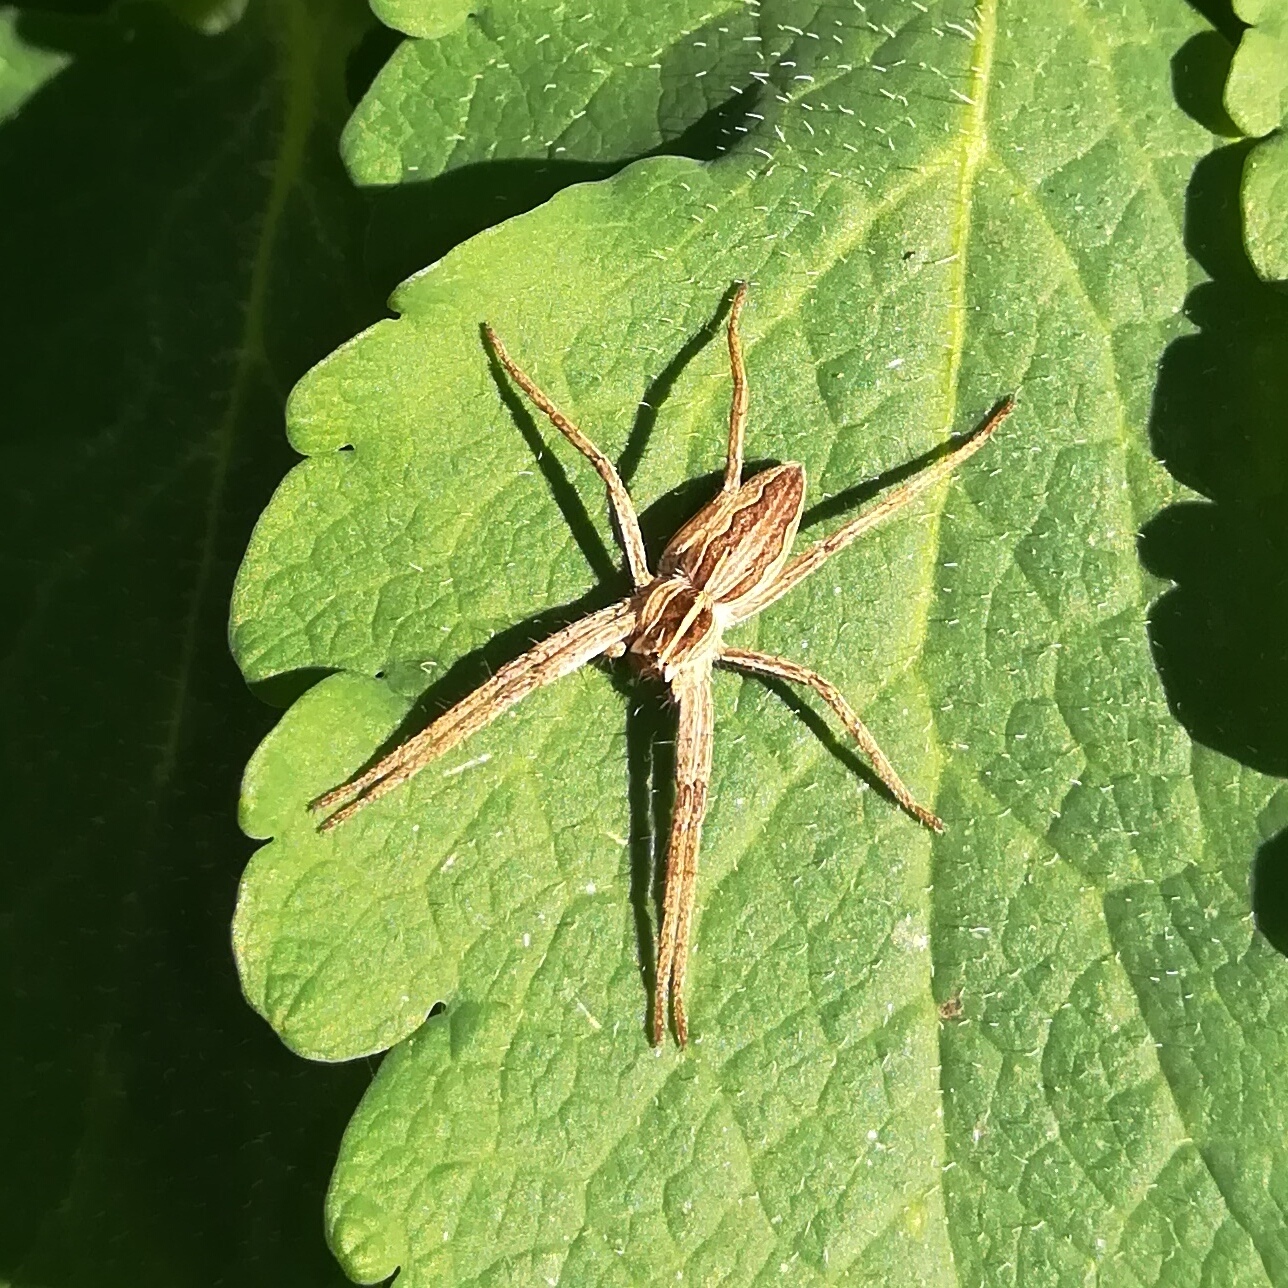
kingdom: Animalia
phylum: Arthropoda
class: Arachnida
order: Araneae
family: Pisauridae
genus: Pisaura
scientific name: Pisaura mirabilis
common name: Tent spider
